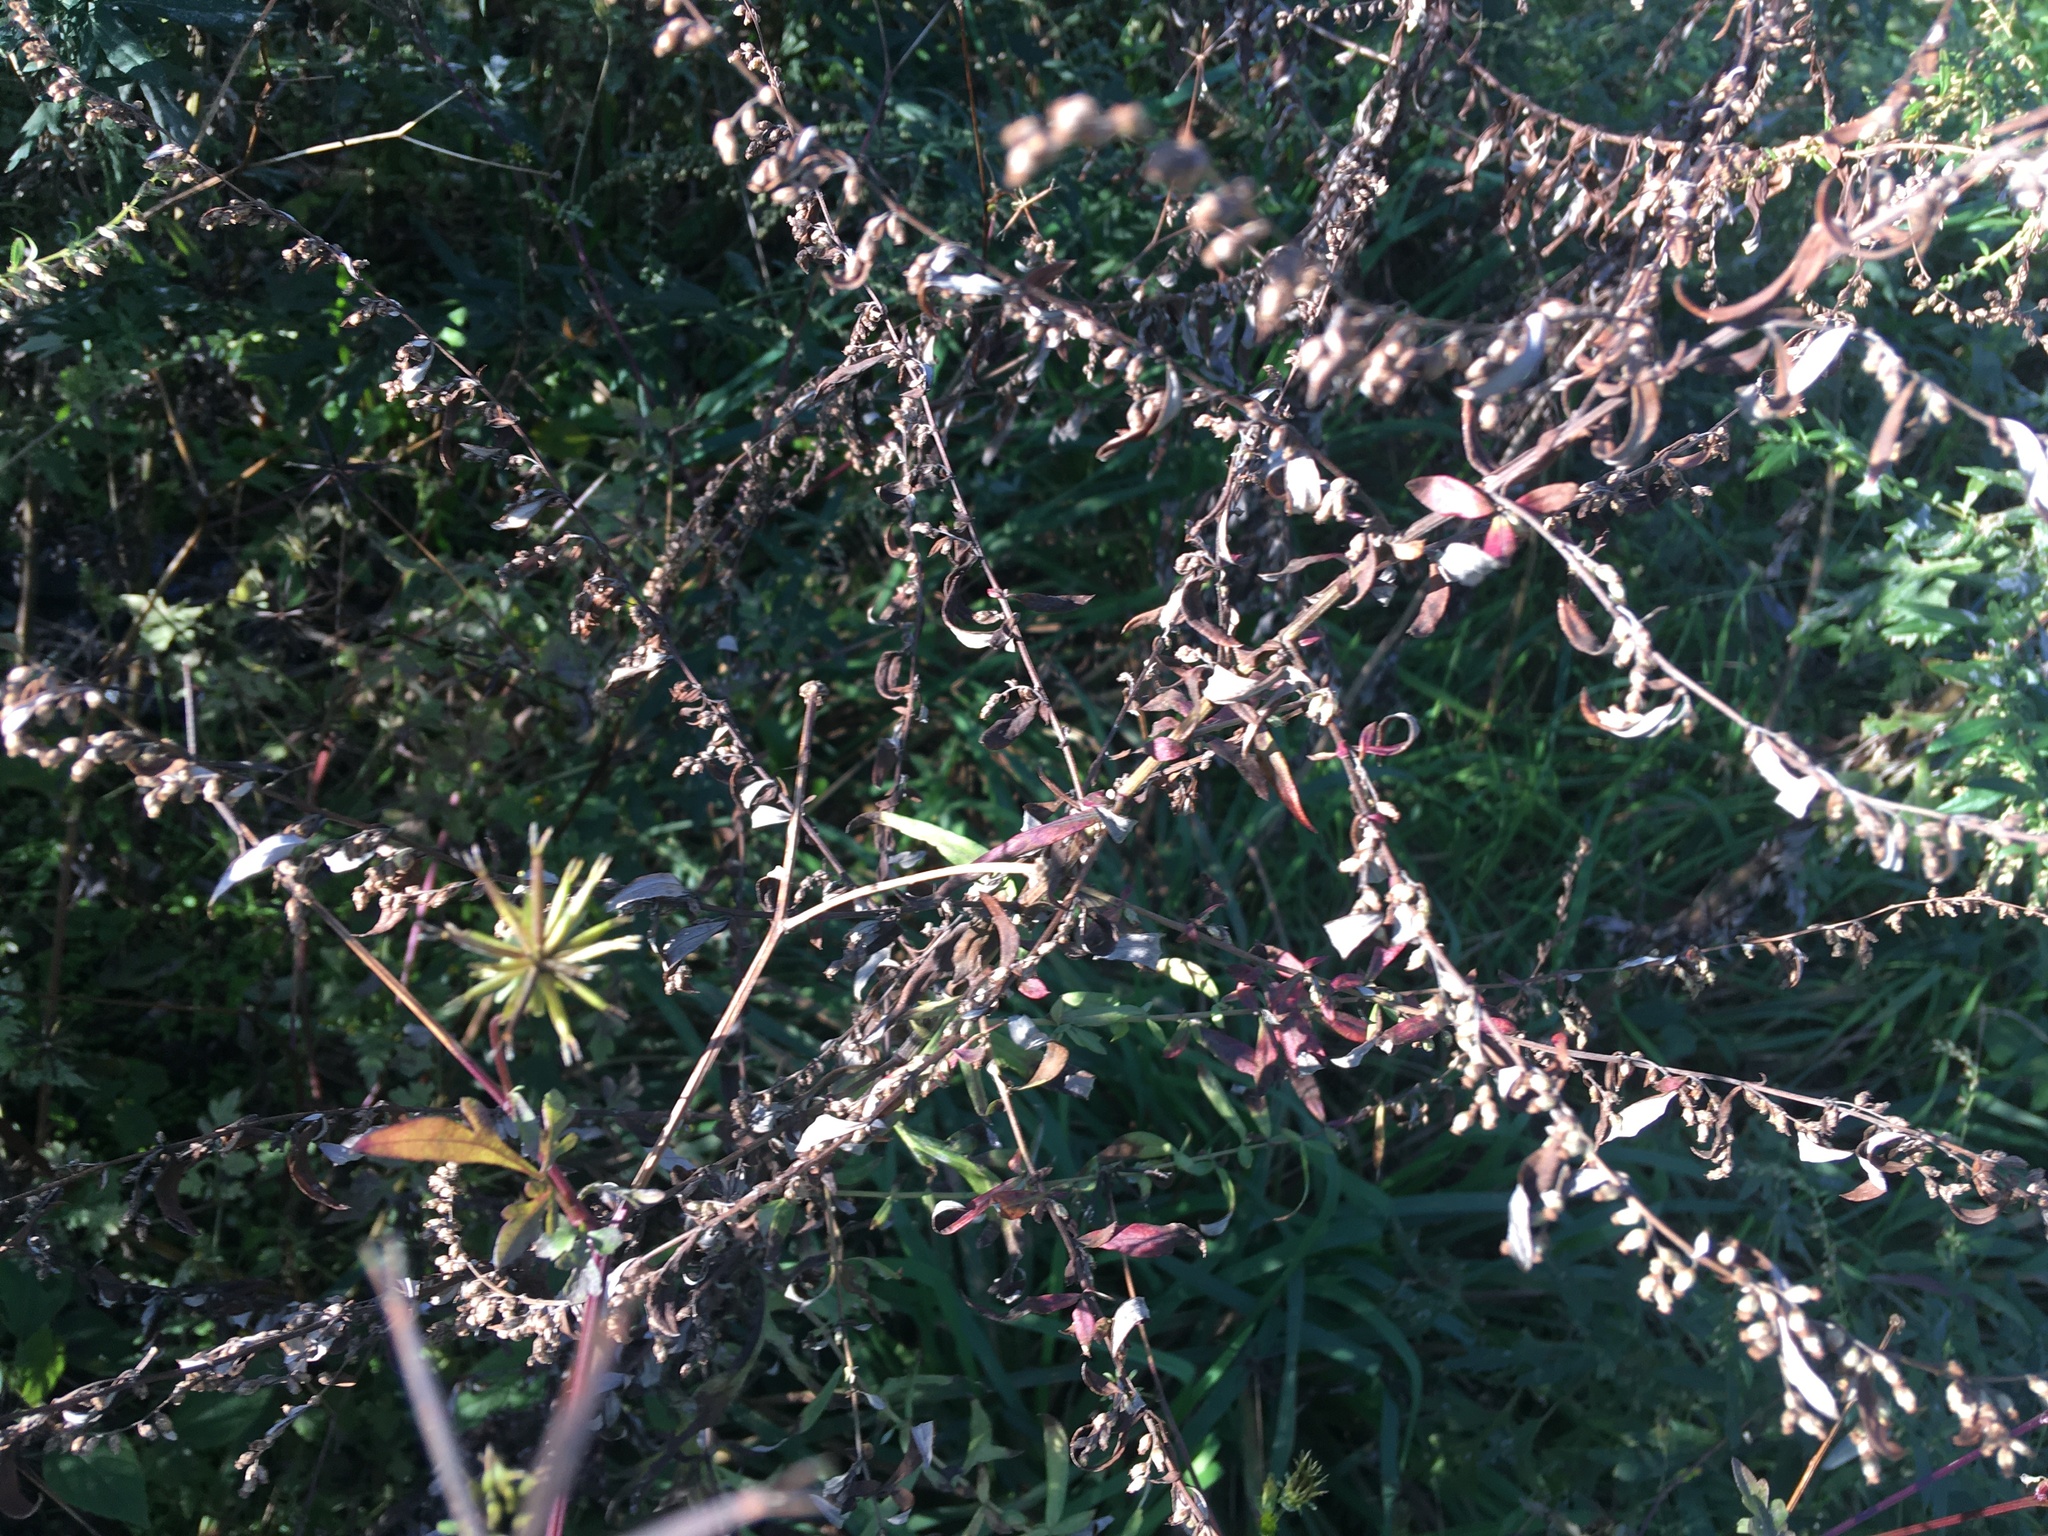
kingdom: Plantae
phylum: Tracheophyta
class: Magnoliopsida
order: Asterales
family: Asteraceae
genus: Artemisia
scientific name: Artemisia vulgaris
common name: Mugwort
